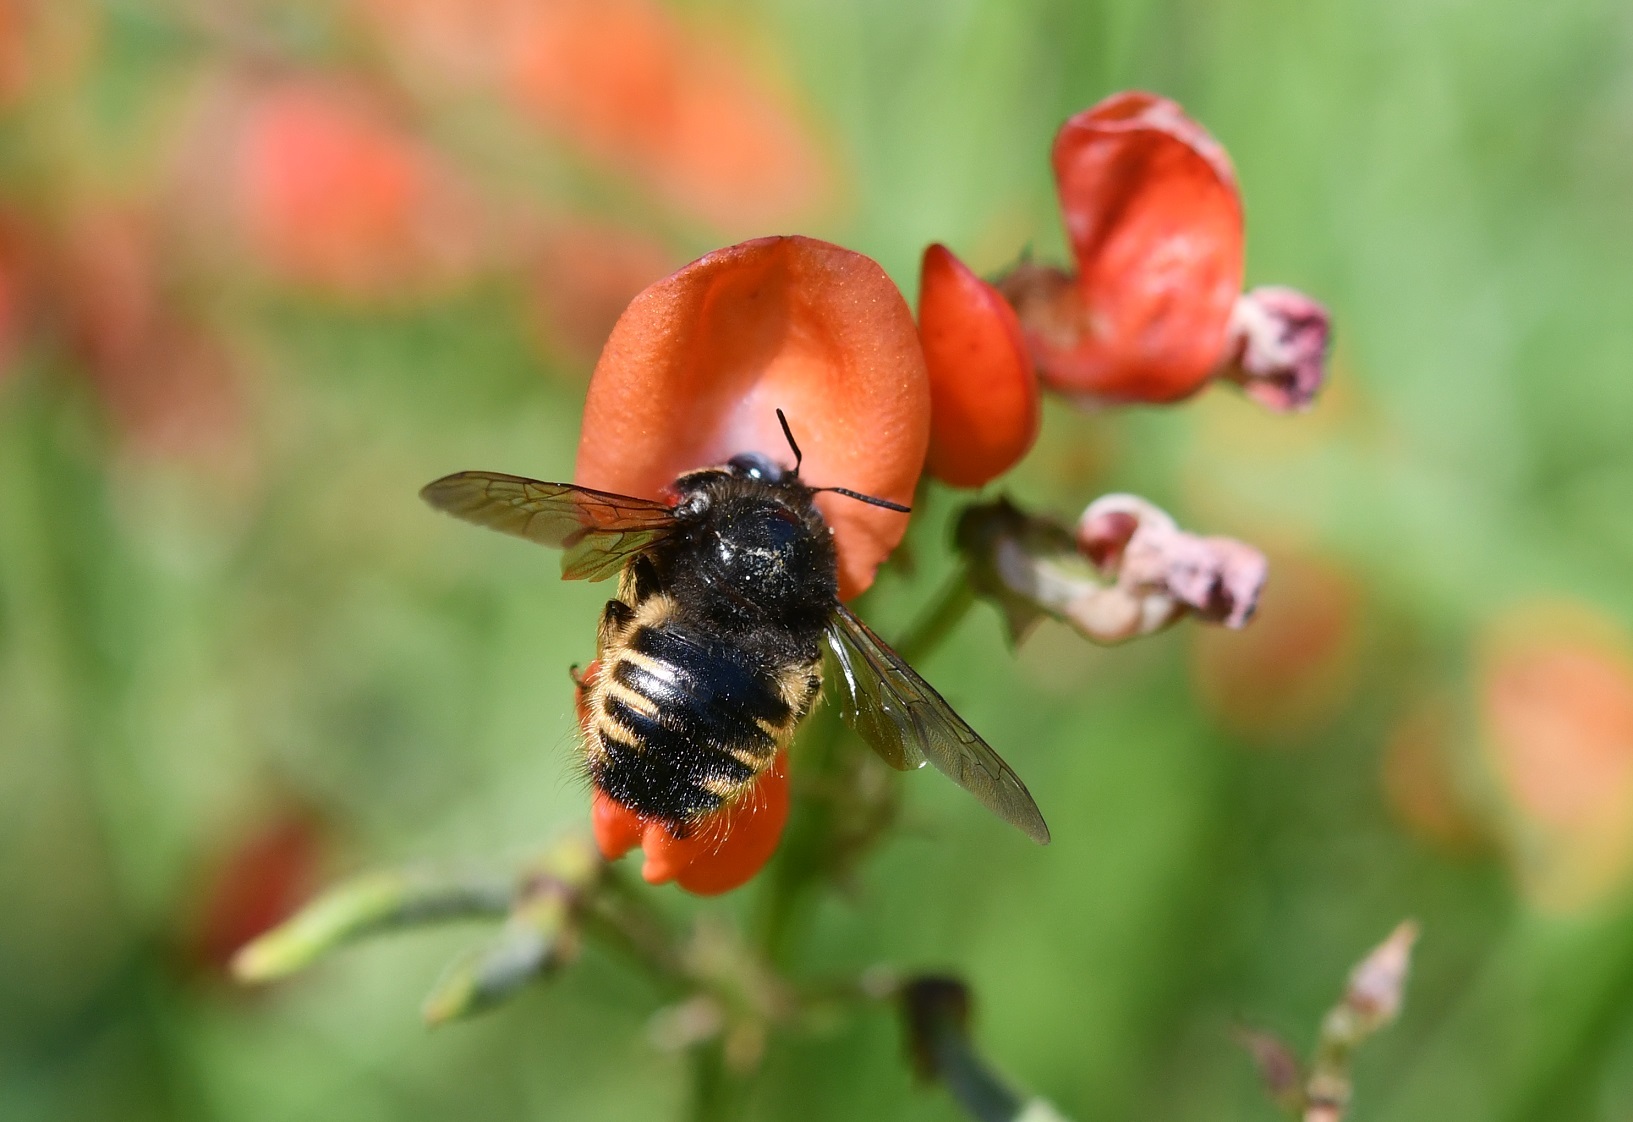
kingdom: Animalia
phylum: Arthropoda
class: Insecta
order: Hymenoptera
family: Apidae
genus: Xylocopa
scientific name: Xylocopa tabaniformis
